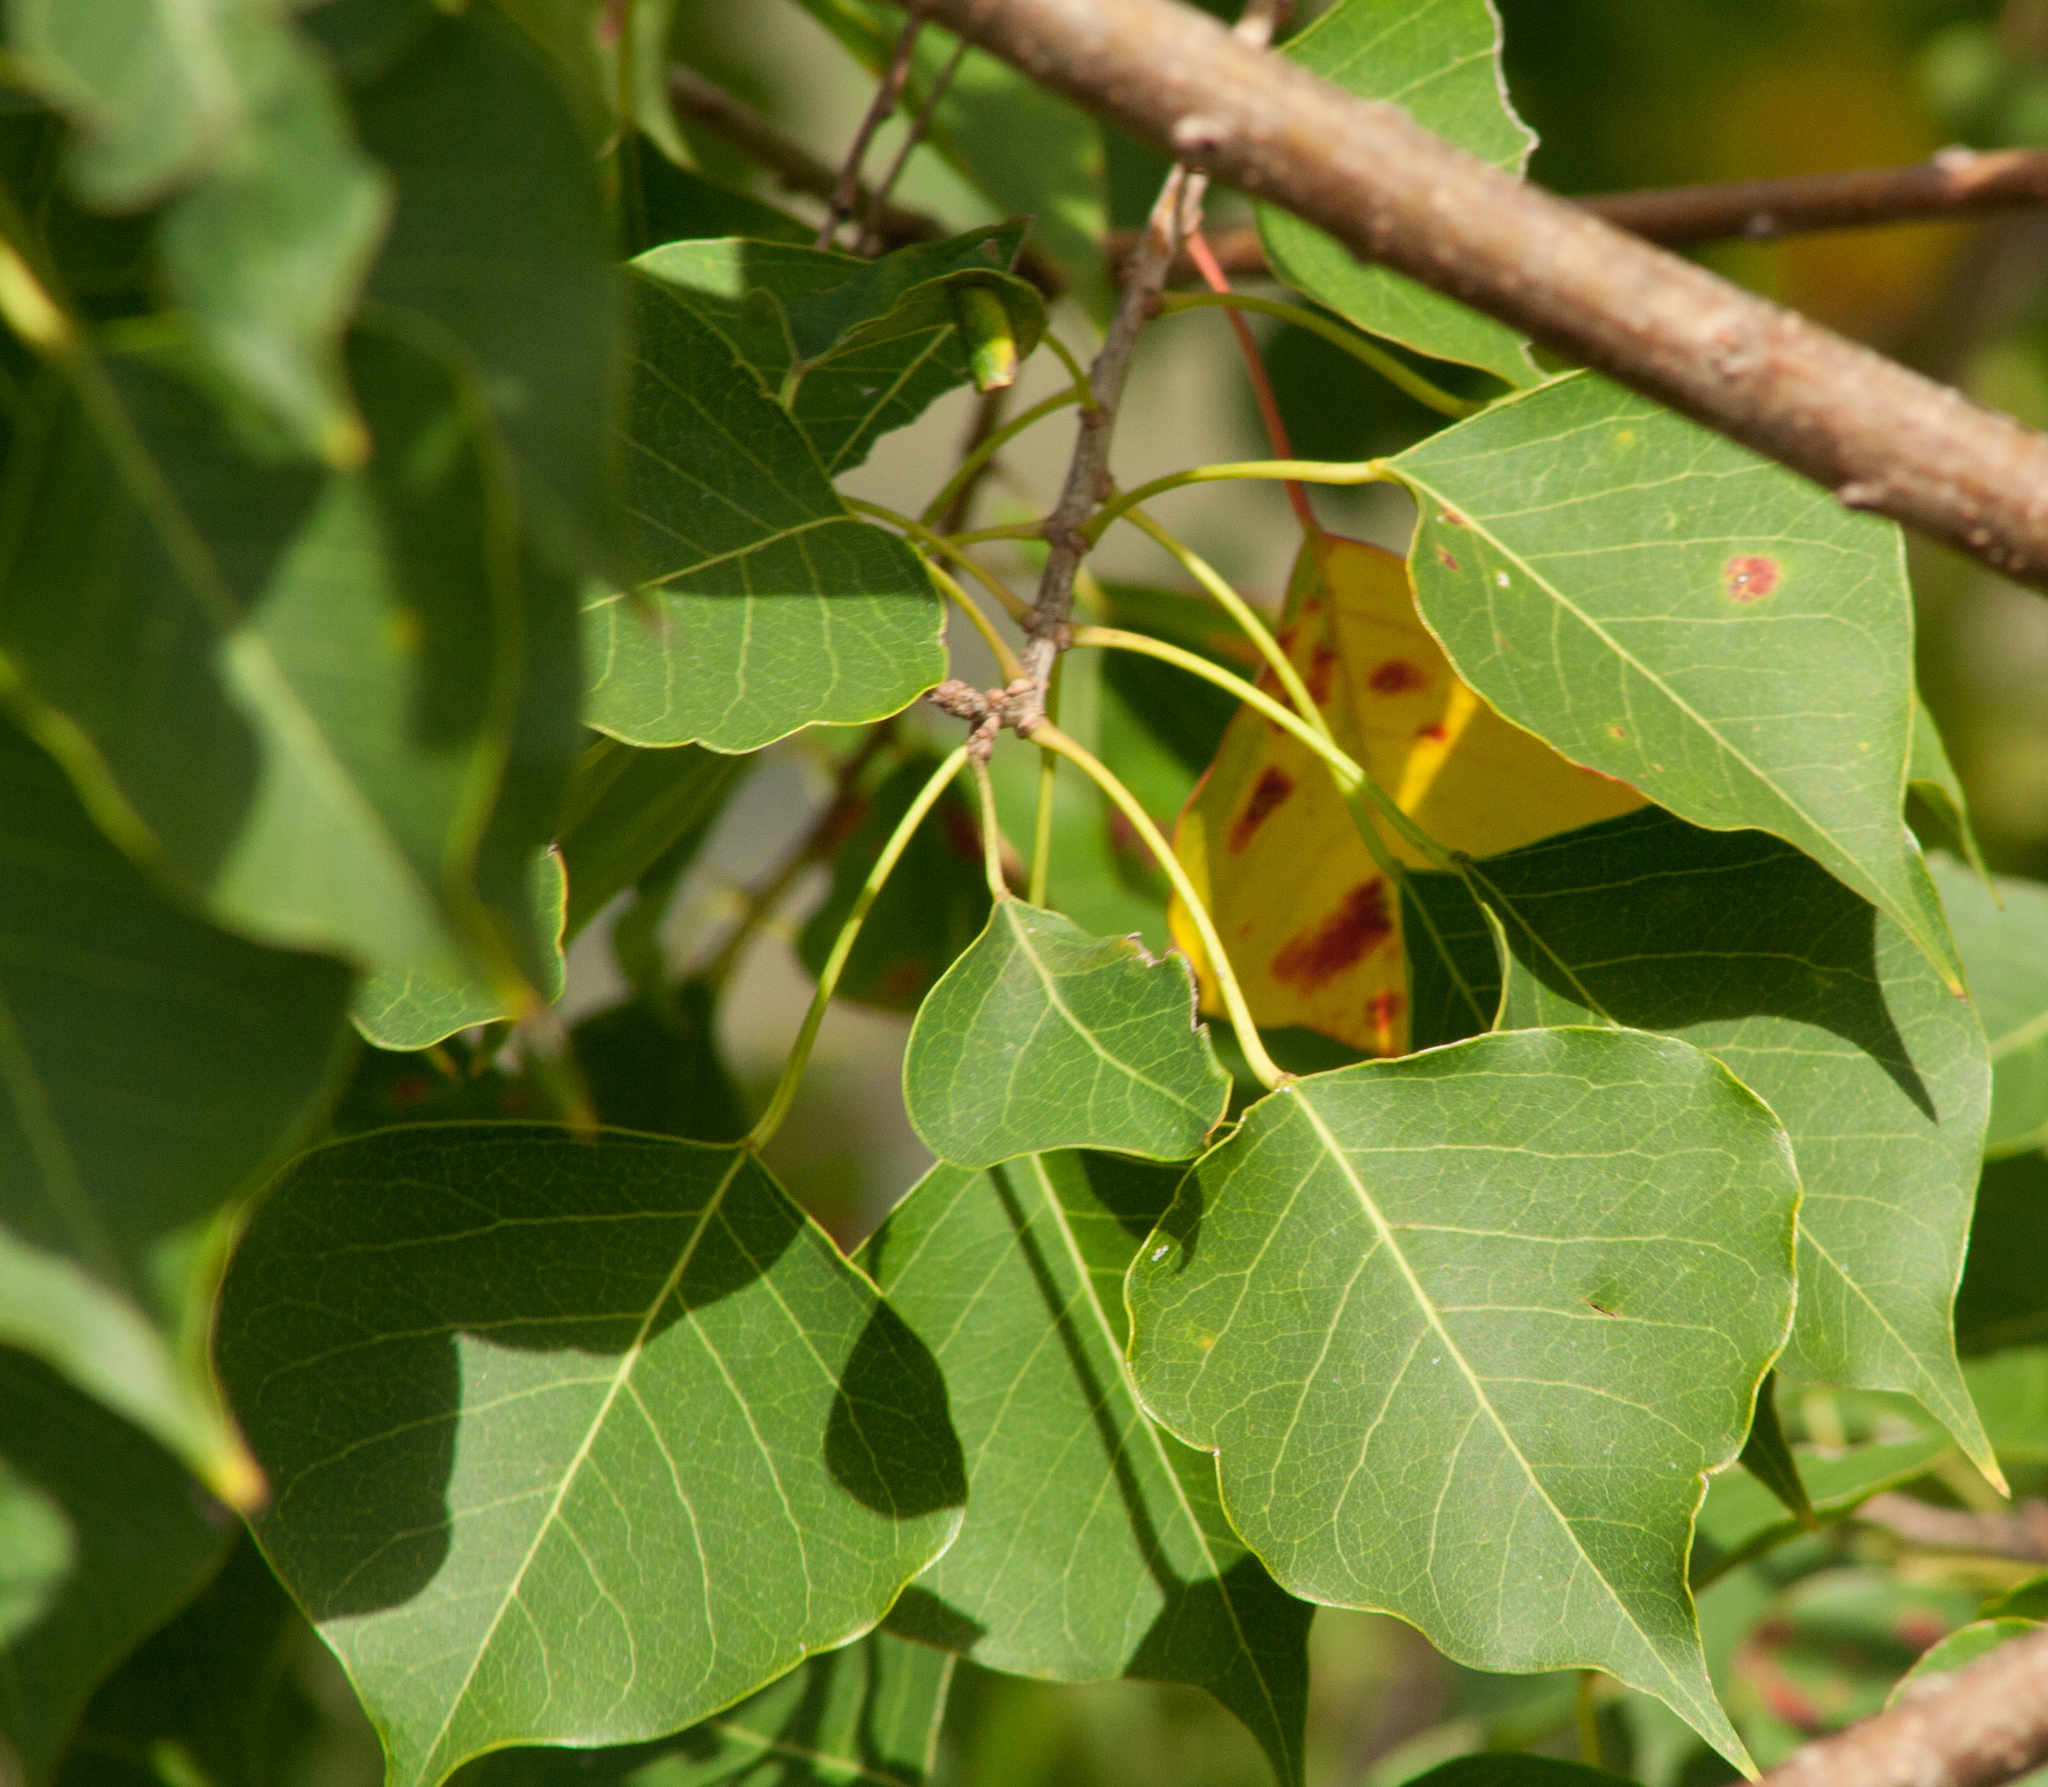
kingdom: Plantae
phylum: Tracheophyta
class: Magnoliopsida
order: Malpighiales
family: Euphorbiaceae
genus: Triadica
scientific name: Triadica sebifera
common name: Chinese tallow
